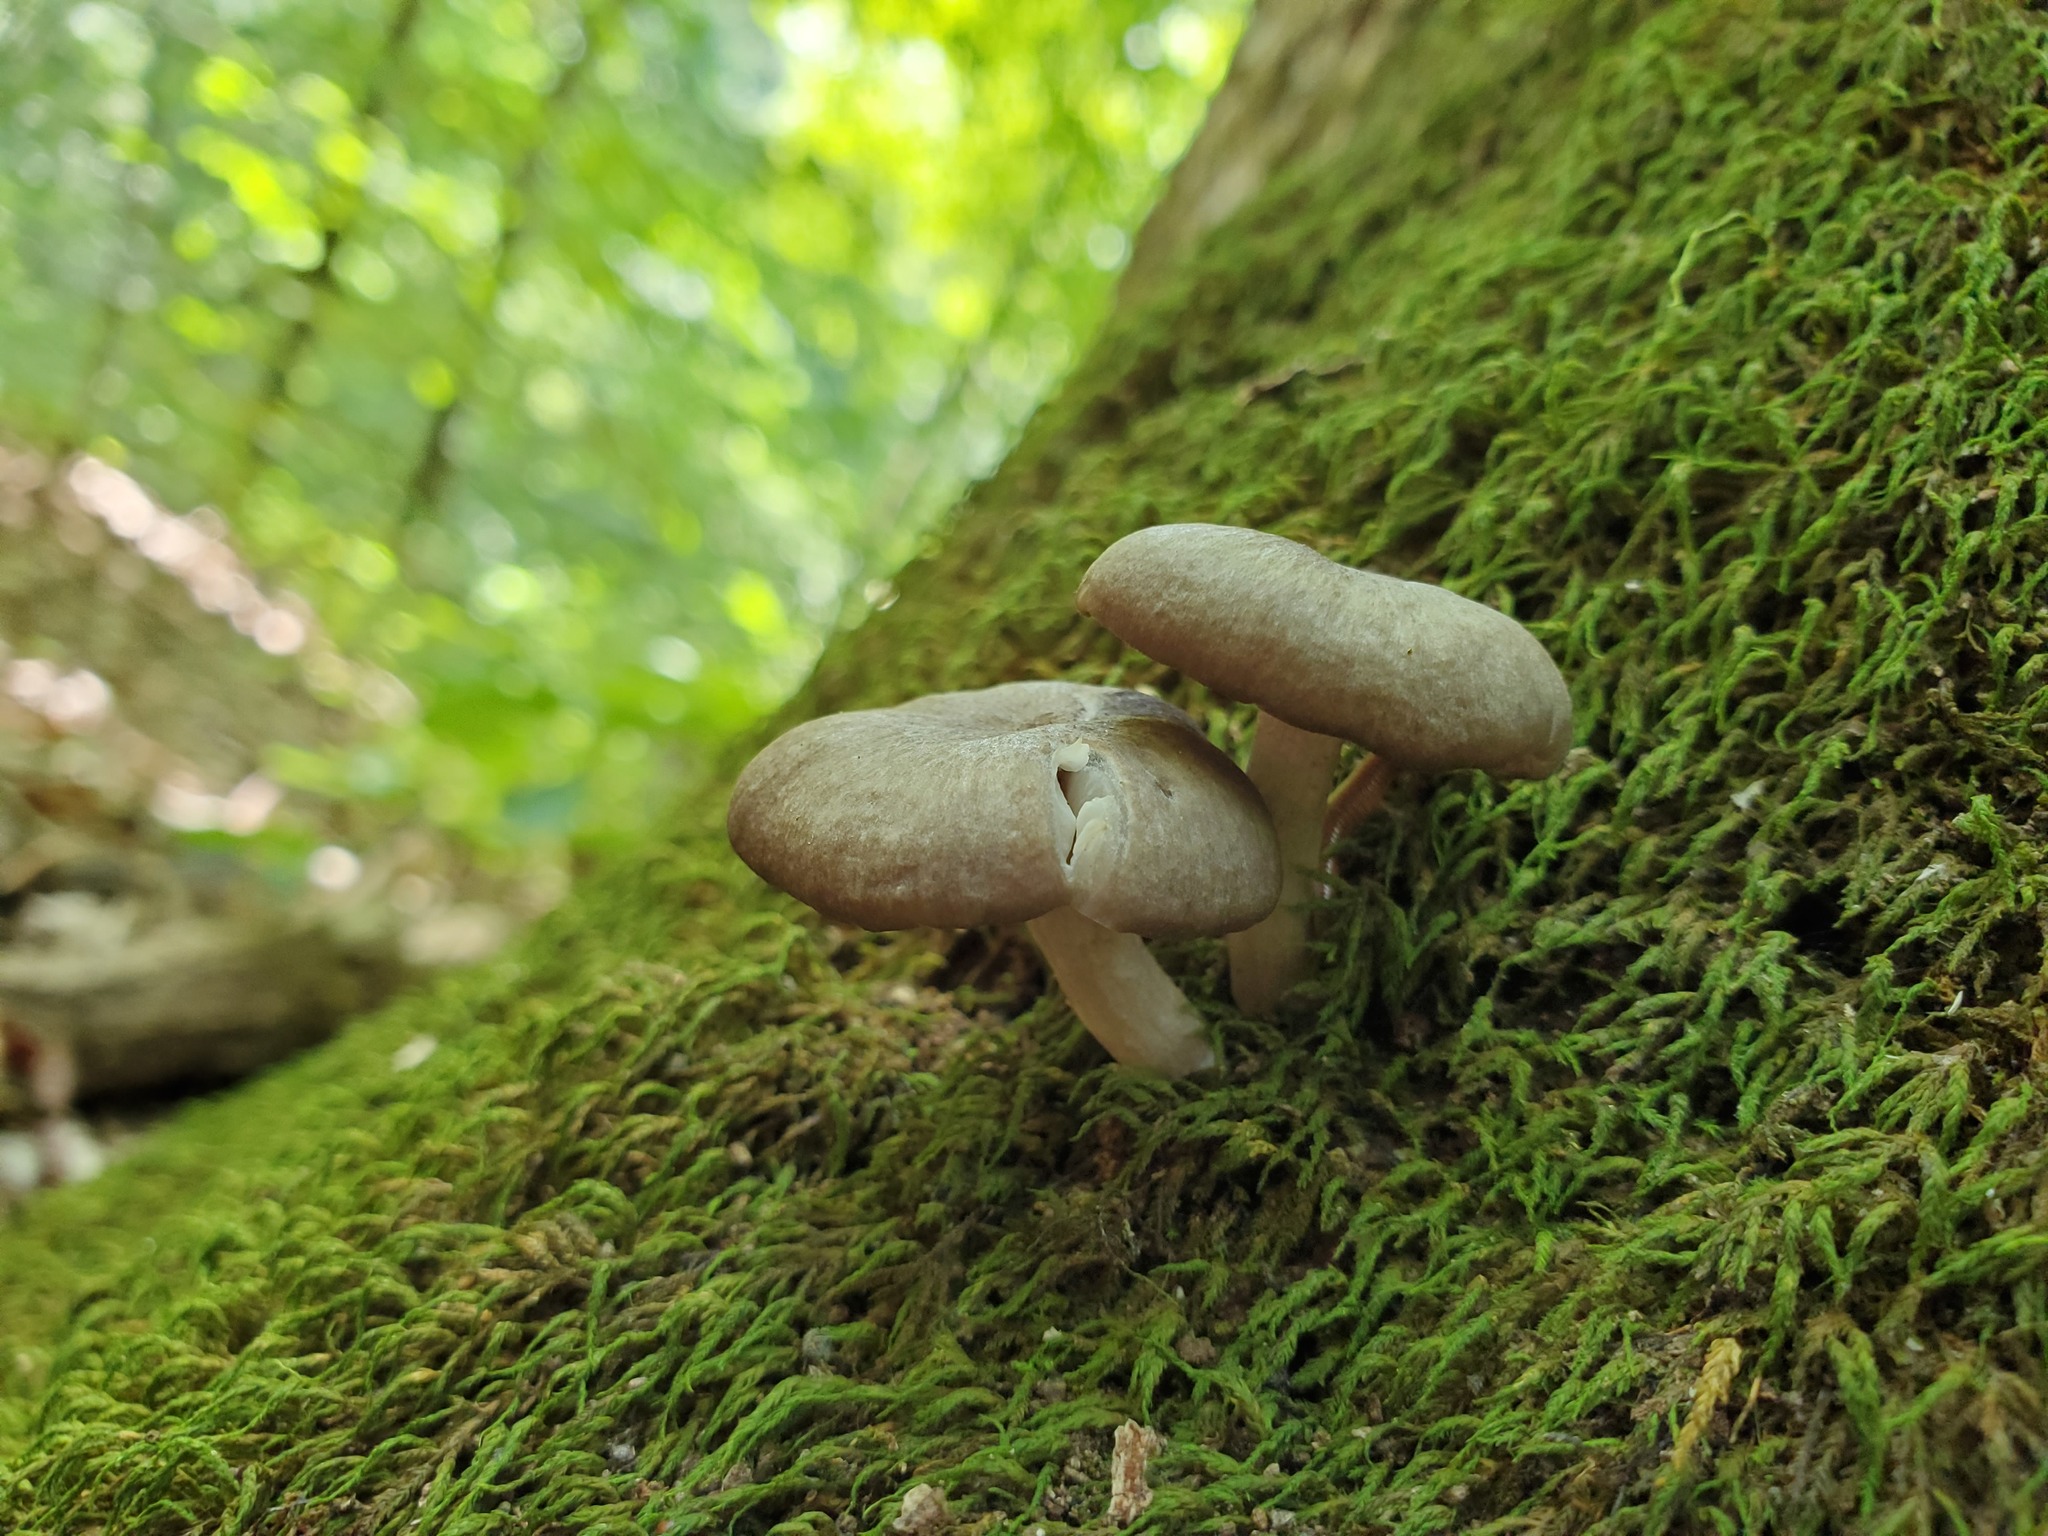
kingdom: Fungi
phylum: Basidiomycota
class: Agaricomycetes
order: Agaricales
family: Marasmiaceae
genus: Clitocybula
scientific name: Clitocybula lacerata
